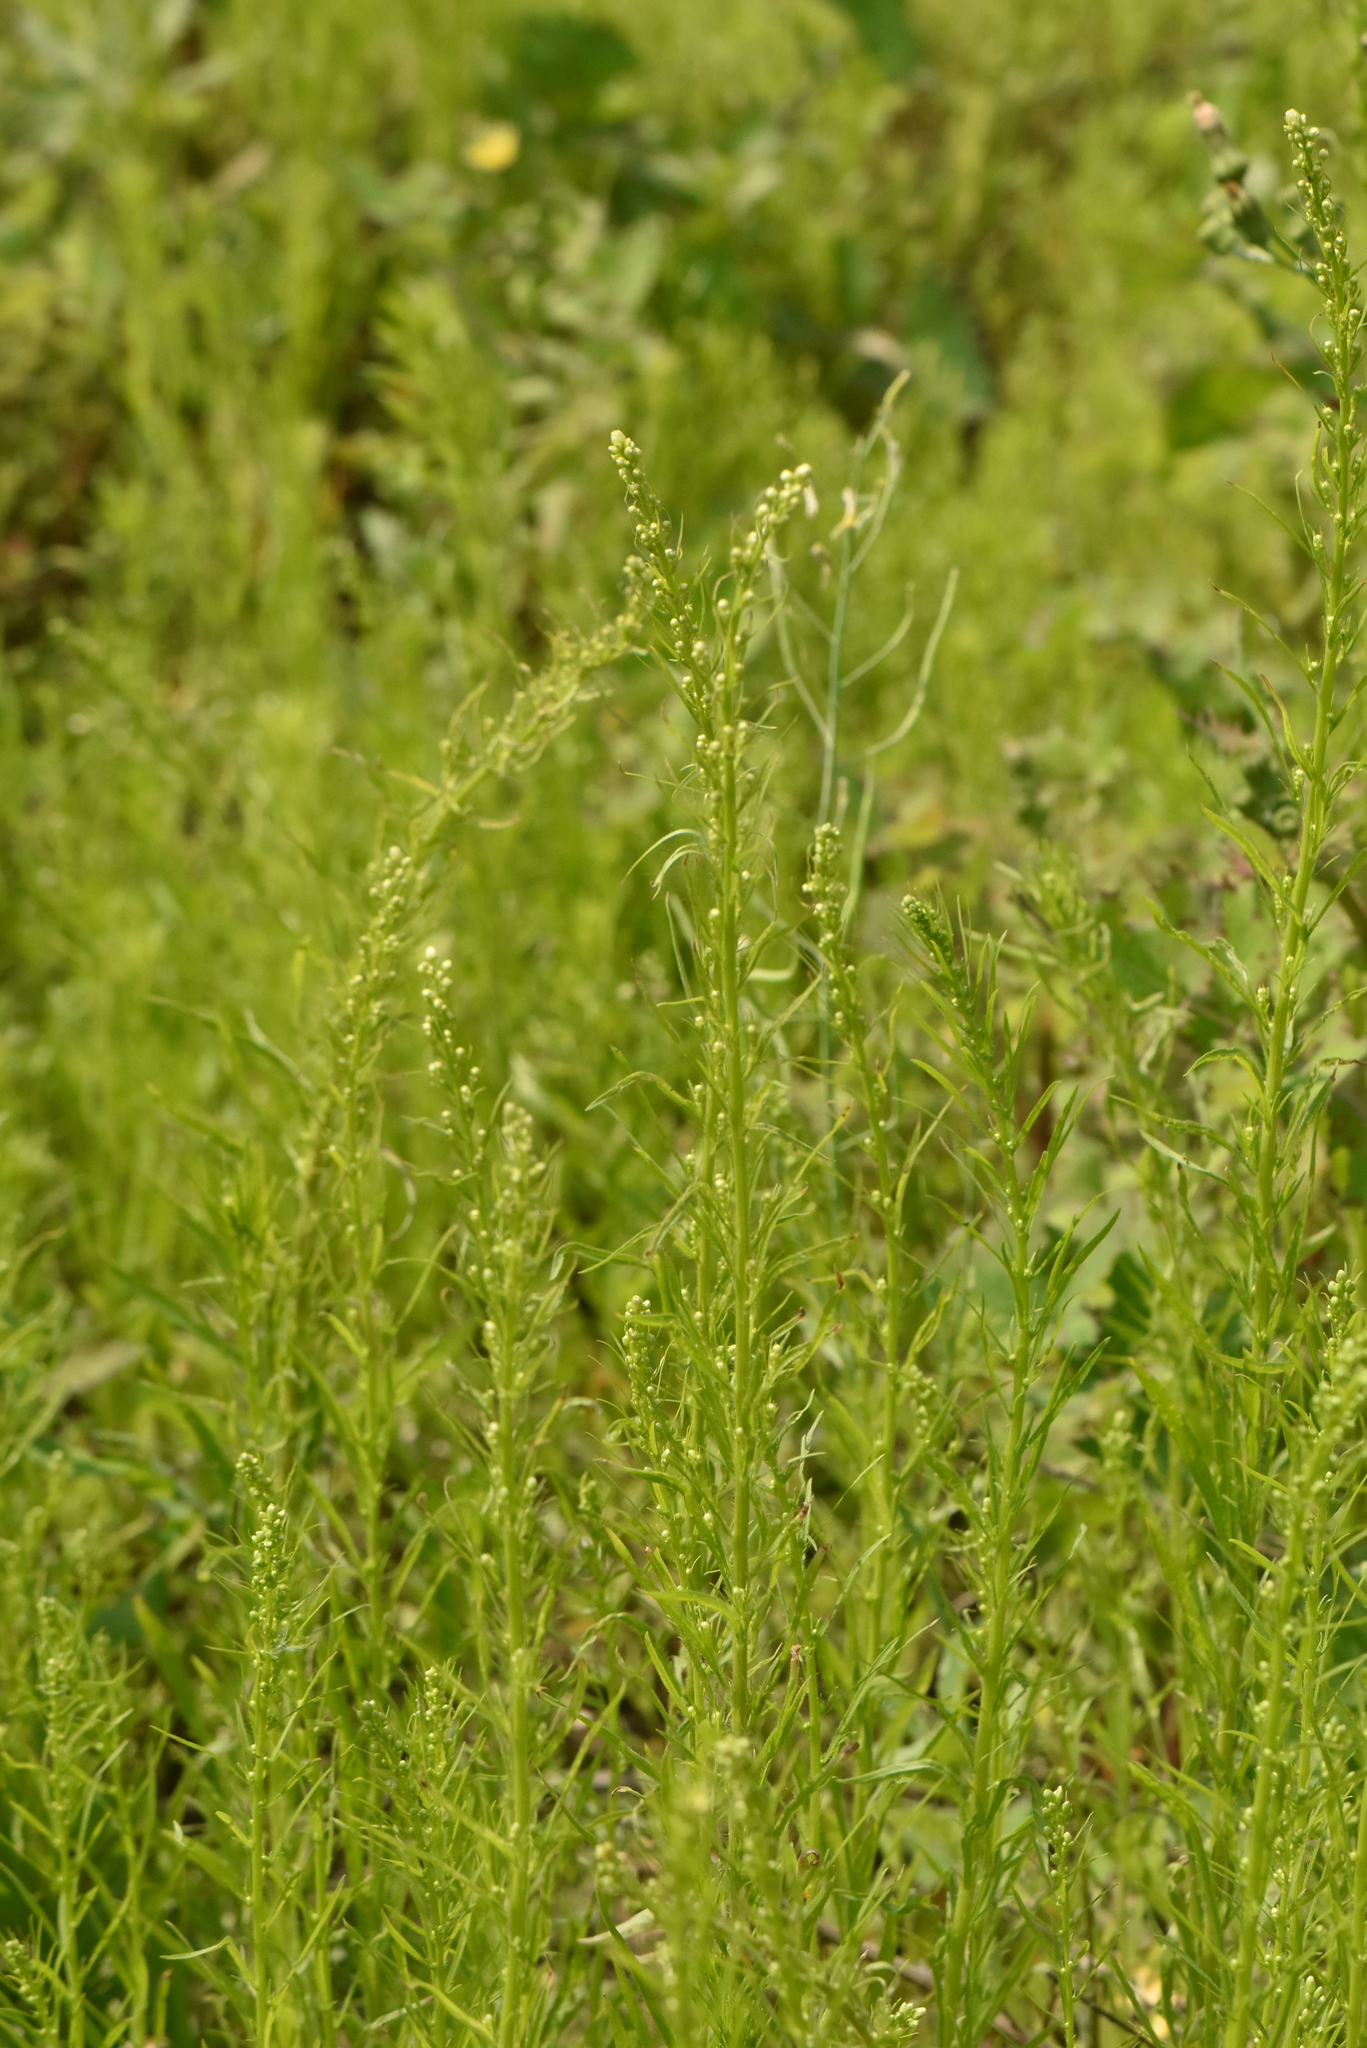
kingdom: Plantae
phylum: Tracheophyta
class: Magnoliopsida
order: Asterales
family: Asteraceae
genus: Erigeron
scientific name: Erigeron canadensis
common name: Canadian fleabane
